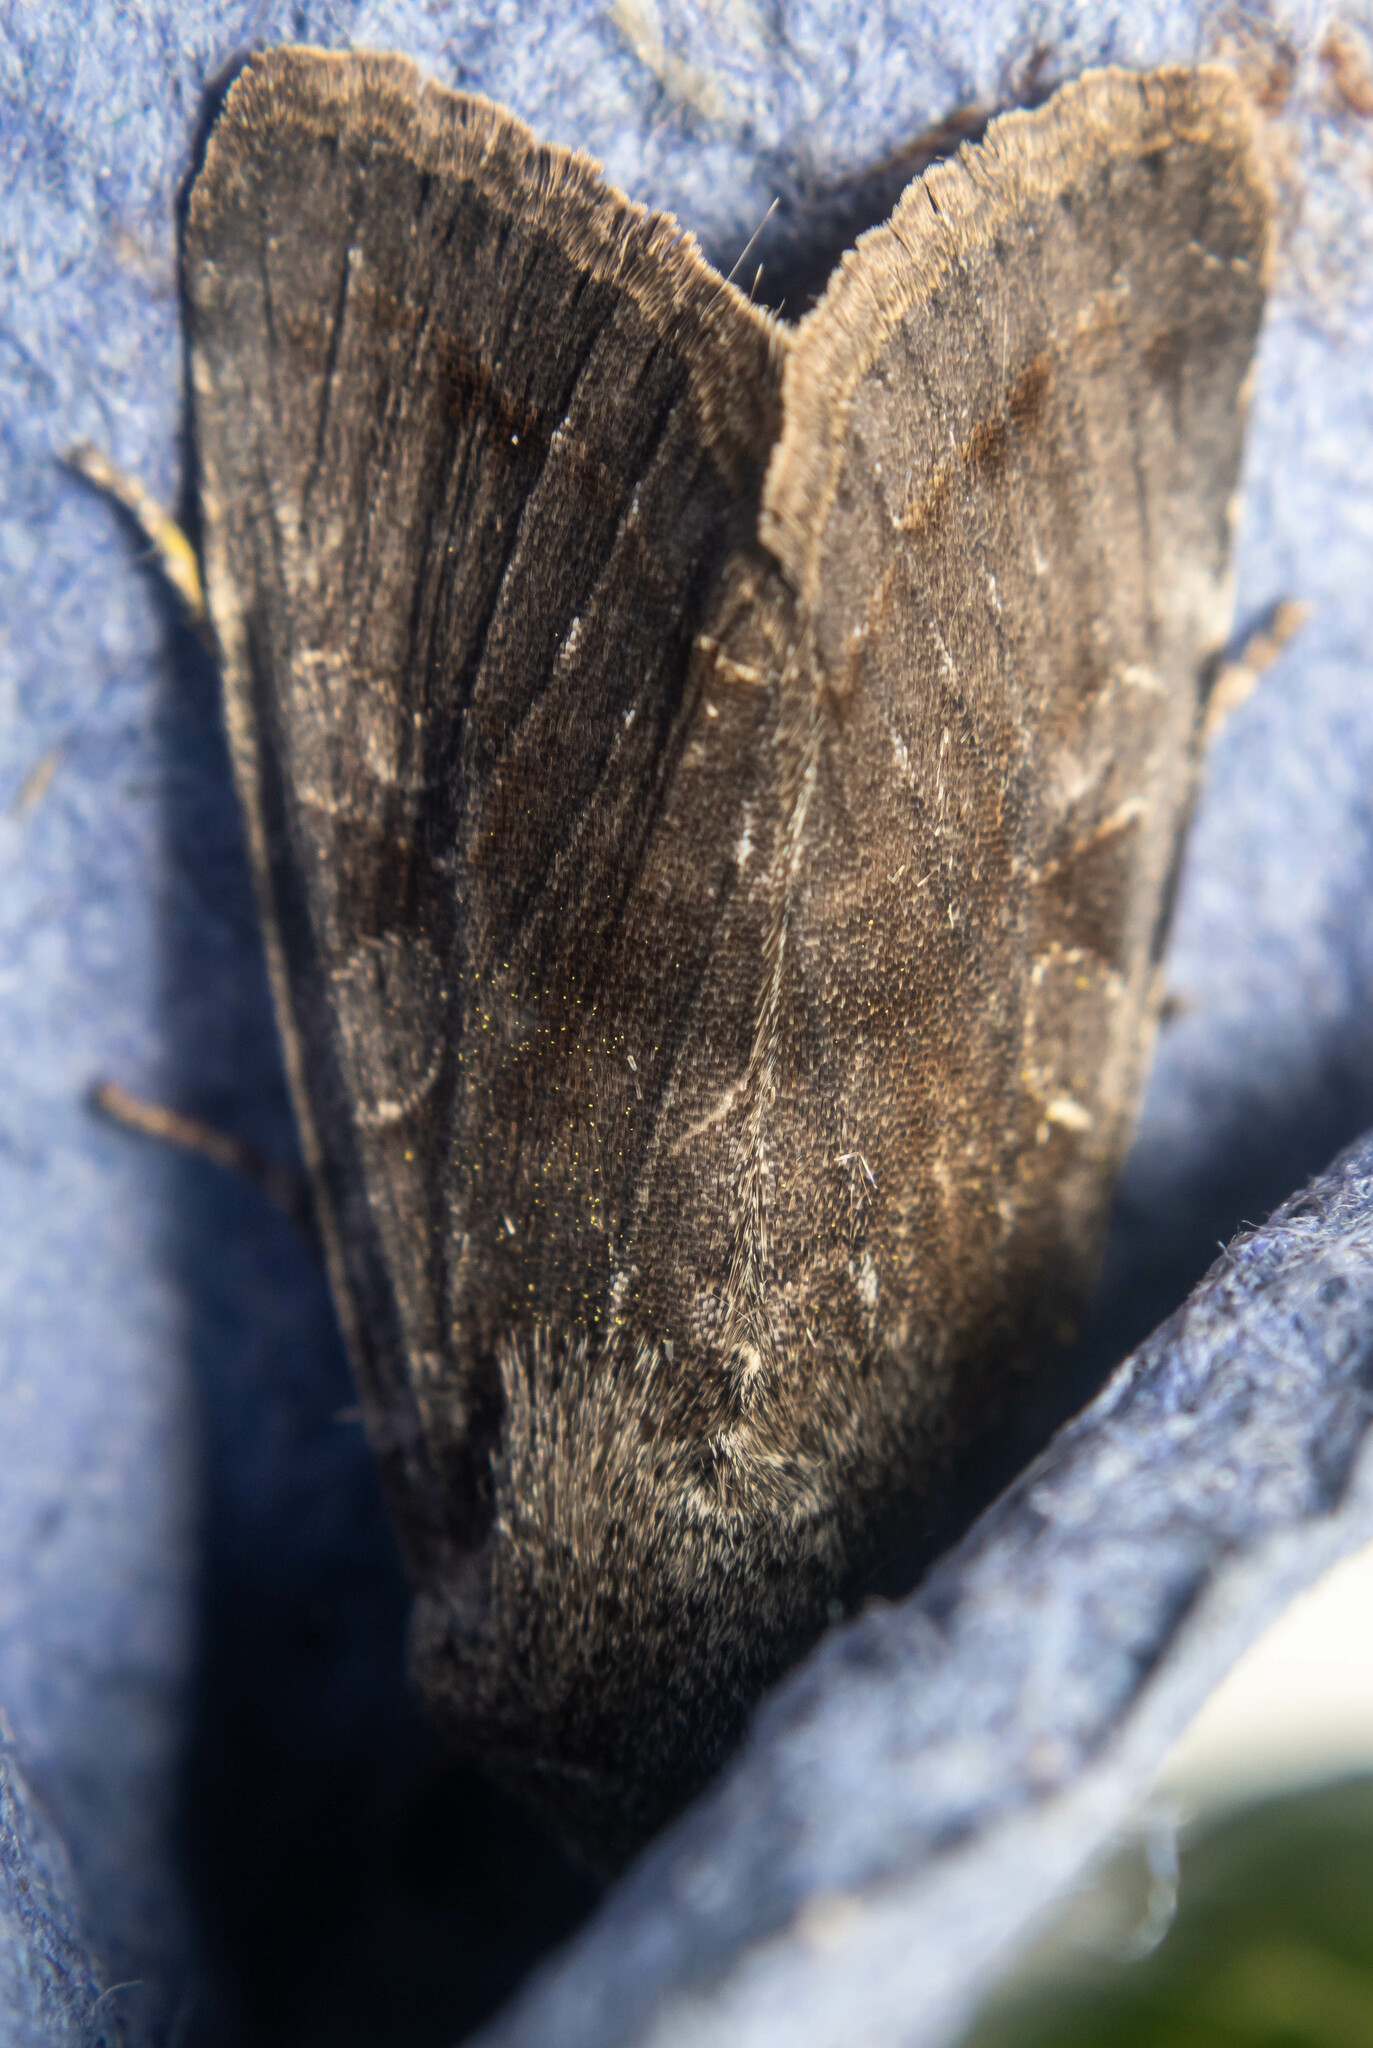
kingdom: Animalia
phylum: Arthropoda
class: Insecta
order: Lepidoptera
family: Noctuidae
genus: Orthosia
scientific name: Orthosia incerta
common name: Clouded drab
